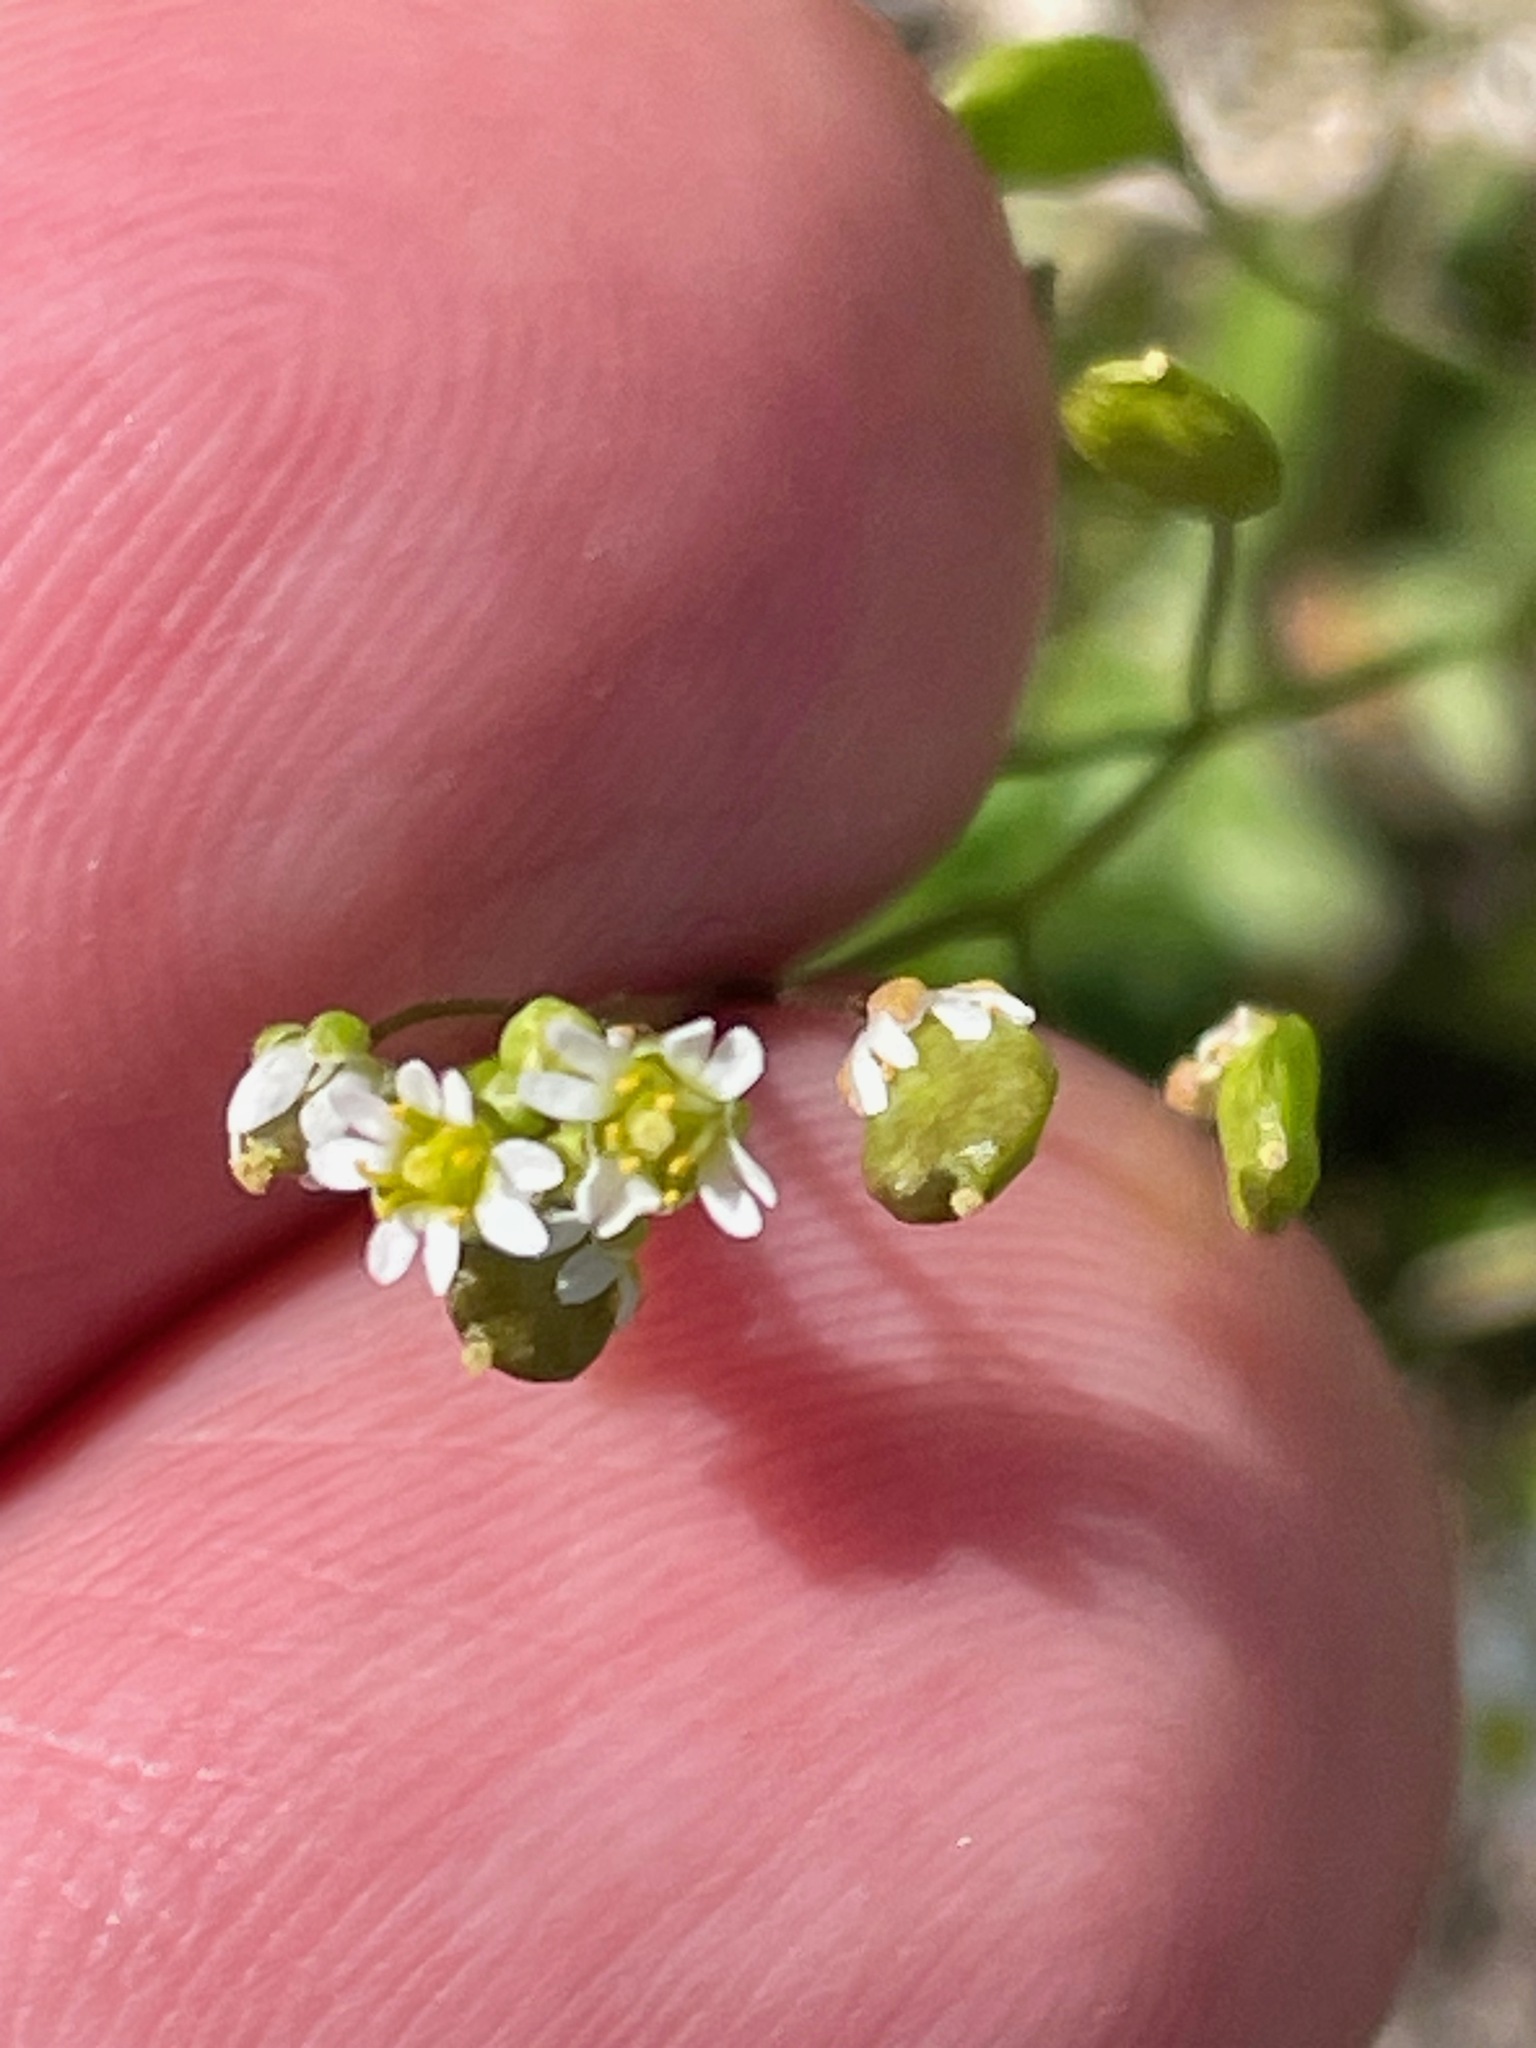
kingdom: Plantae
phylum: Tracheophyta
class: Magnoliopsida
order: Brassicales
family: Brassicaceae
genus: Draba
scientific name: Draba verna
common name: Spring draba
